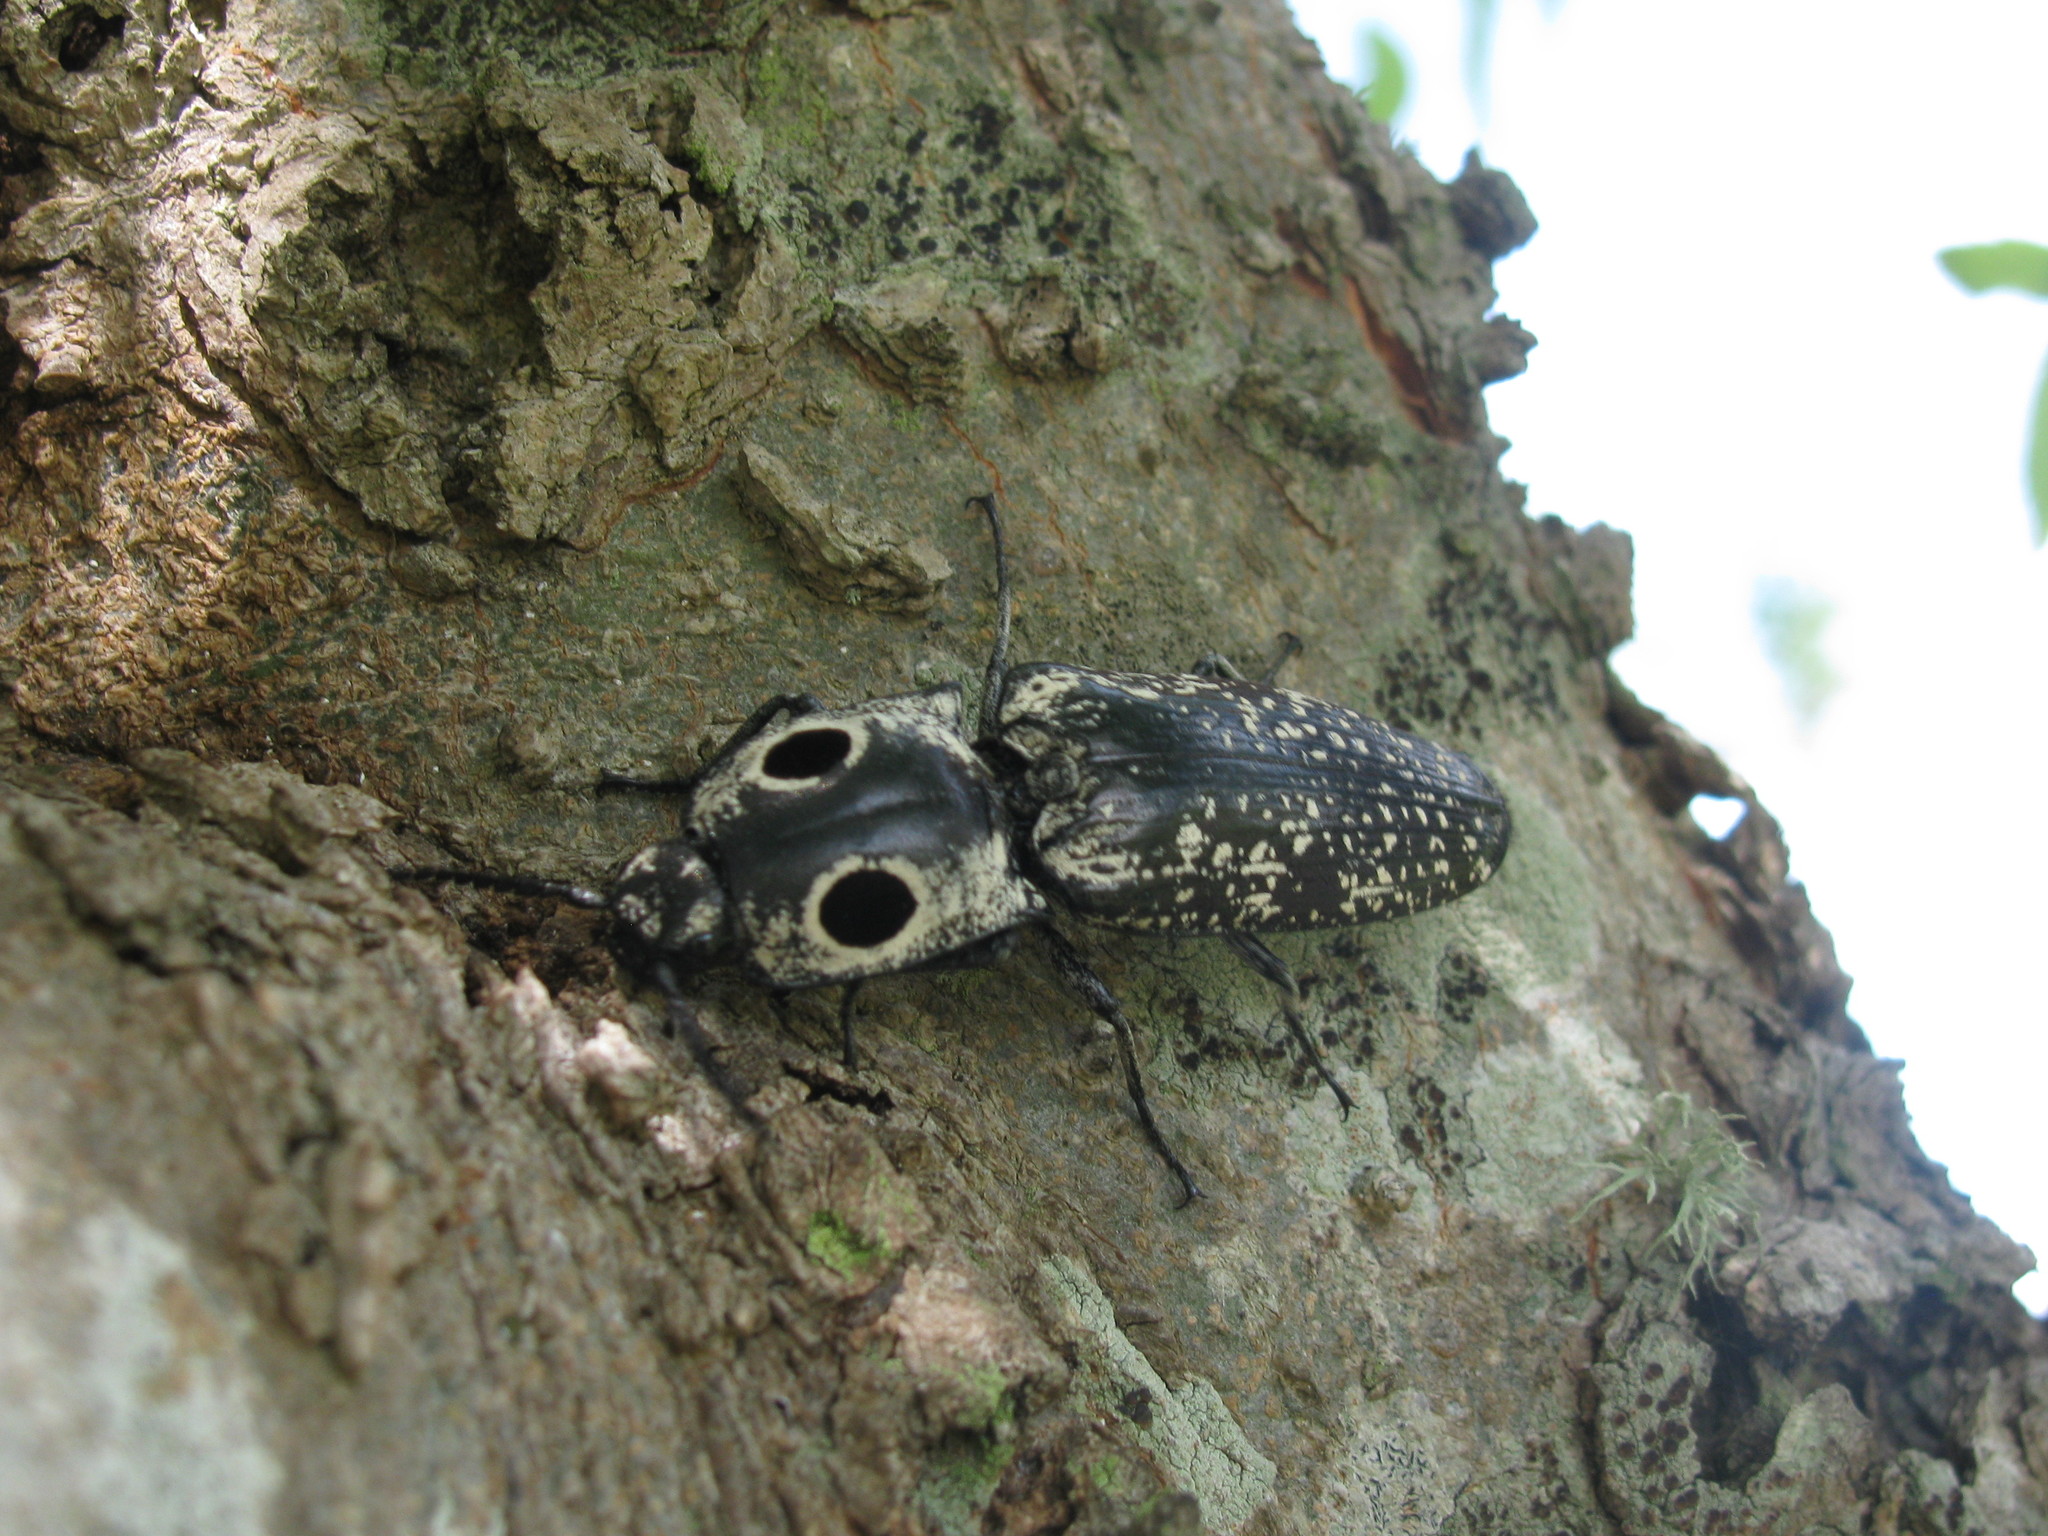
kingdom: Animalia
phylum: Arthropoda
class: Insecta
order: Coleoptera
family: Elateridae
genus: Alaus
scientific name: Alaus oculatus
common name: Eastern eyed click beetle
